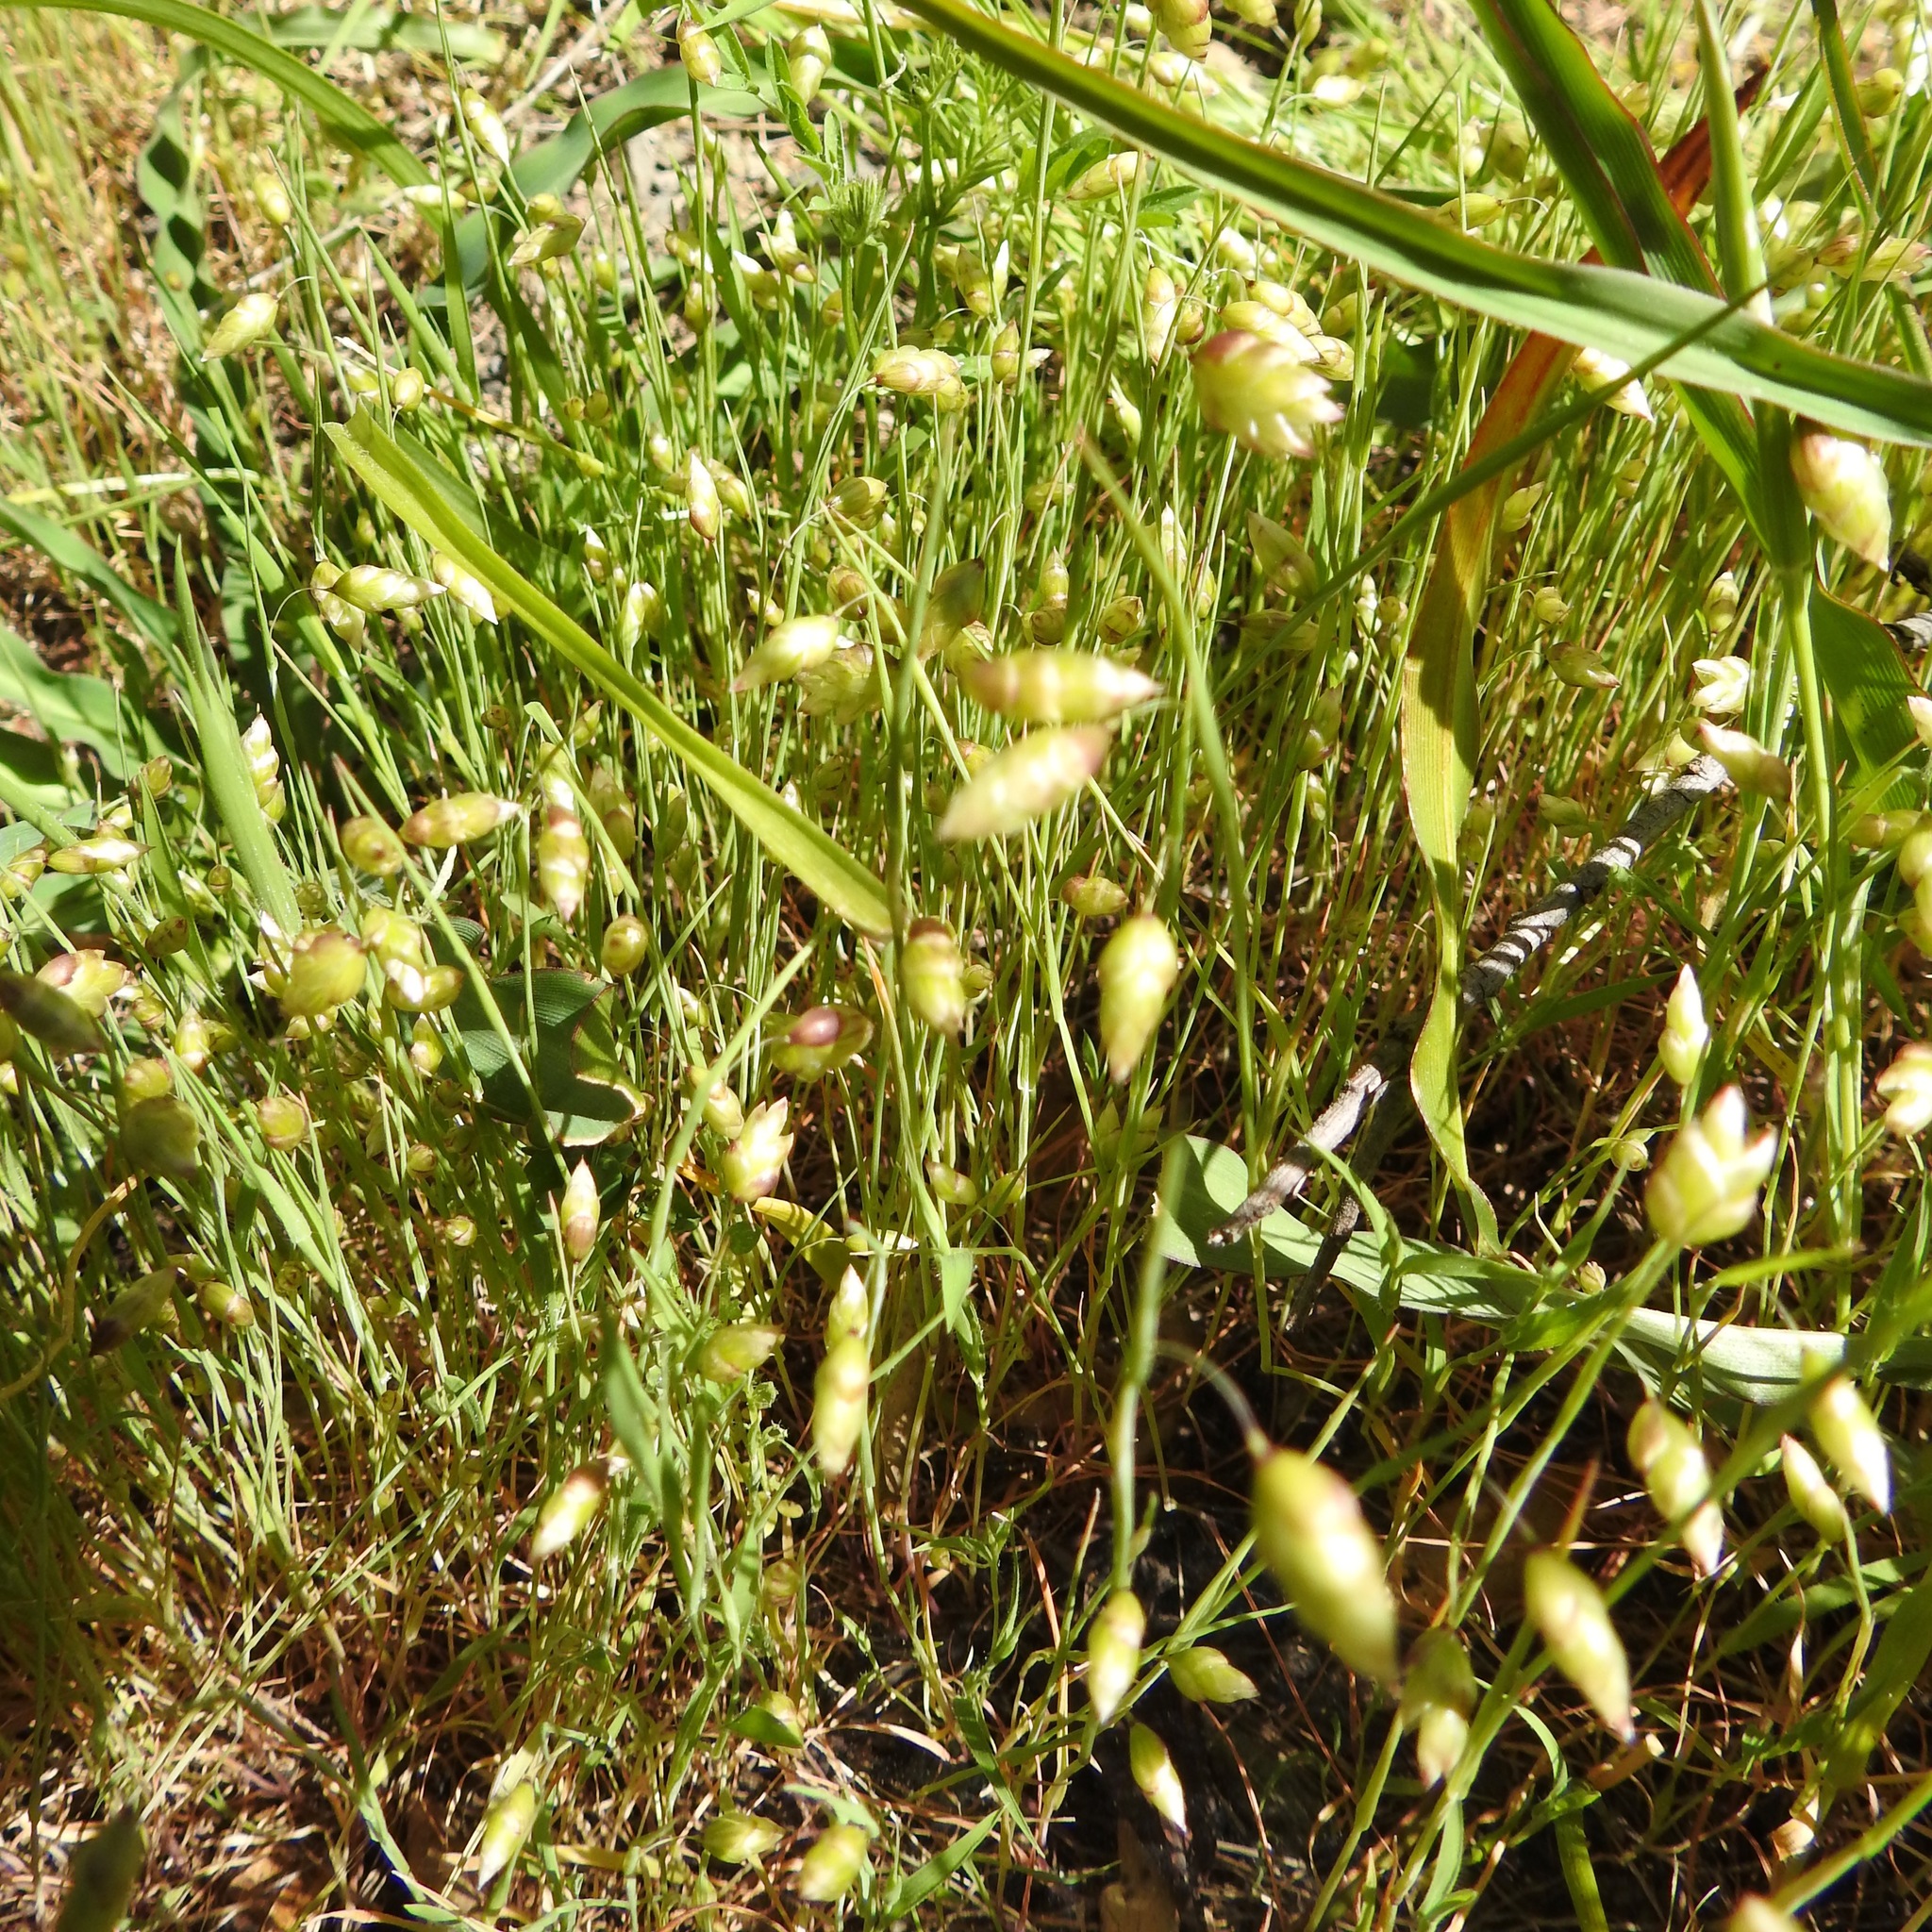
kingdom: Plantae
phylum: Tracheophyta
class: Liliopsida
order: Poales
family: Poaceae
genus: Briza
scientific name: Briza maxima
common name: Big quakinggrass
